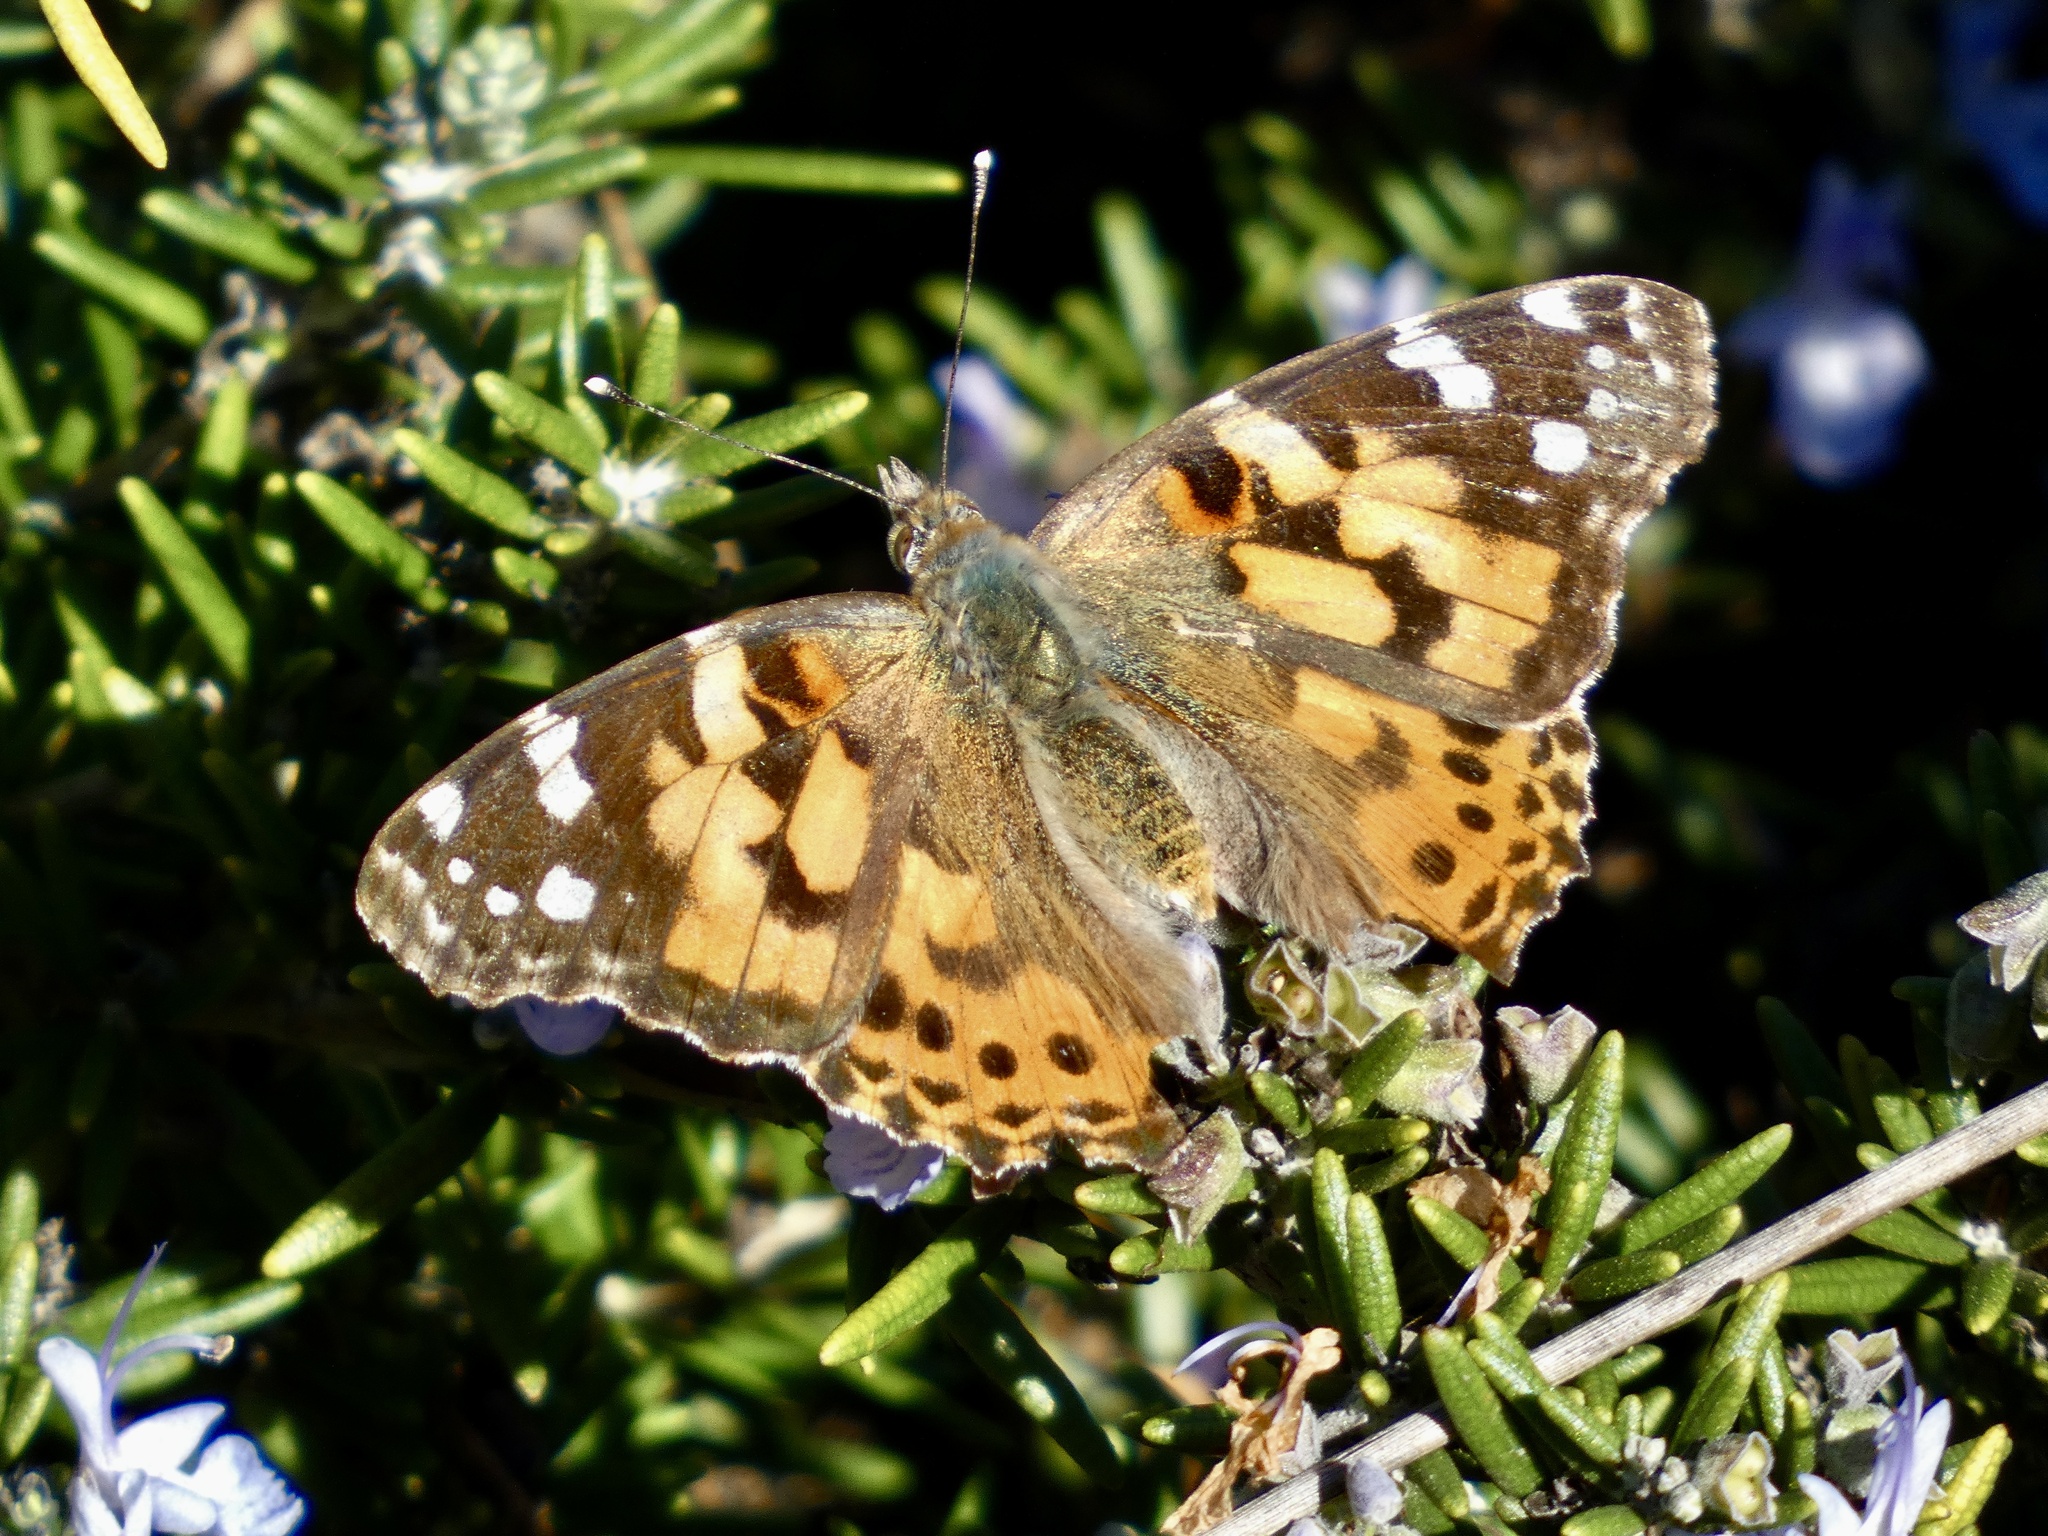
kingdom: Animalia
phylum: Arthropoda
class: Insecta
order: Lepidoptera
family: Nymphalidae
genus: Vanessa
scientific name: Vanessa cardui
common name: Painted lady
